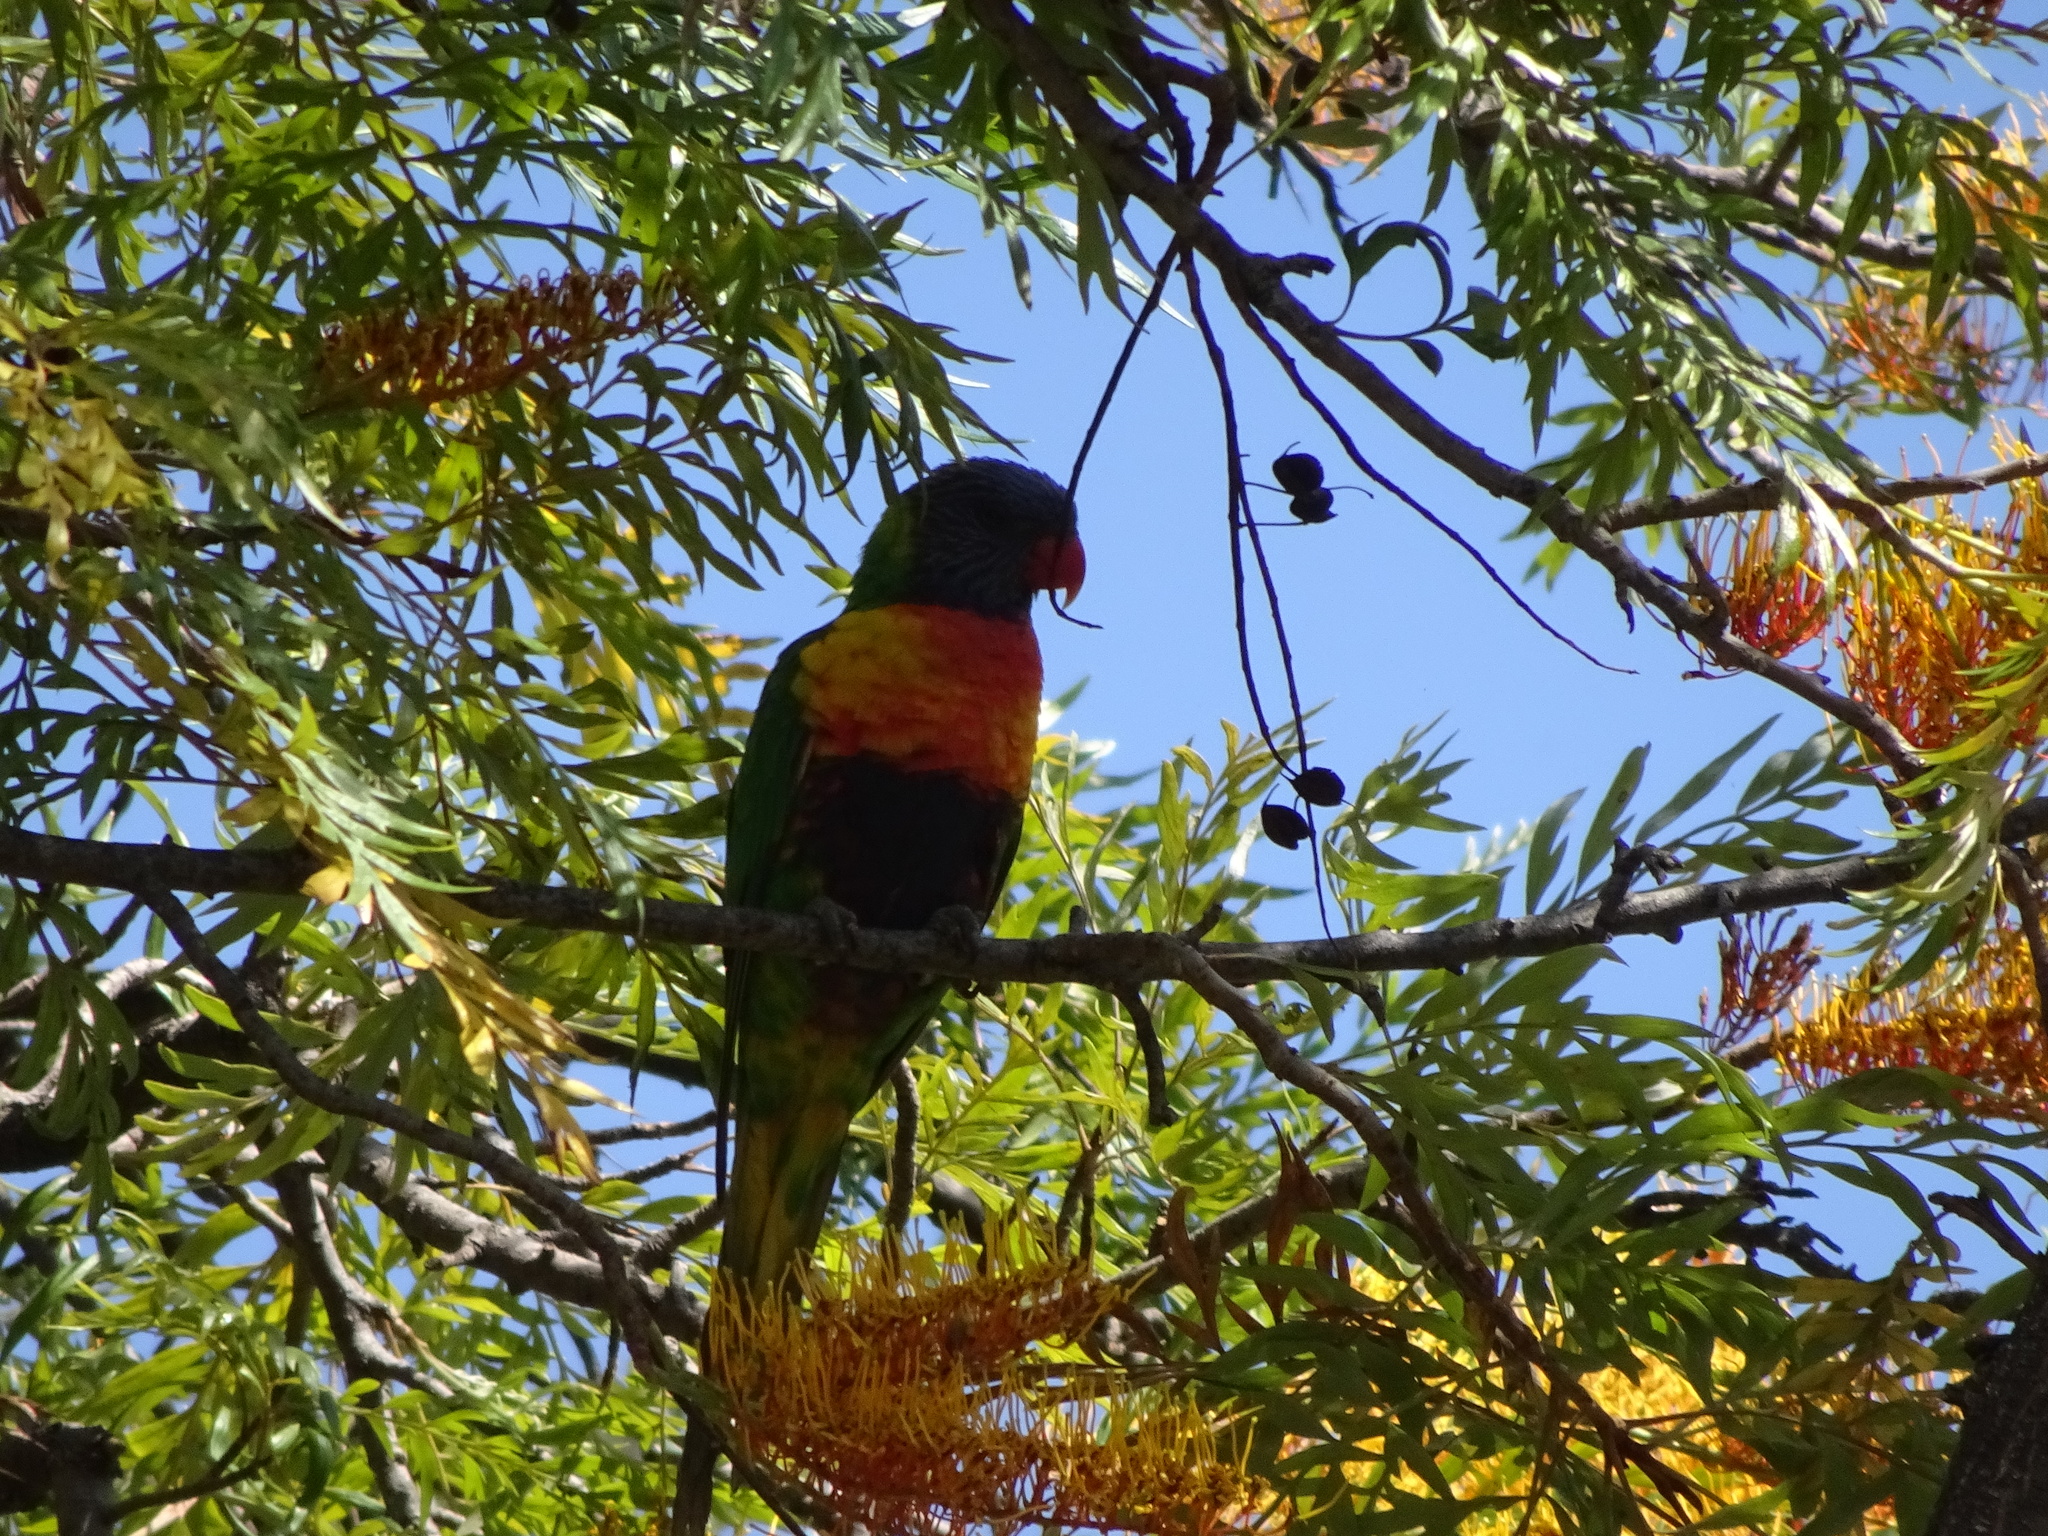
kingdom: Animalia
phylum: Chordata
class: Aves
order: Psittaciformes
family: Psittacidae
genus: Trichoglossus
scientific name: Trichoglossus haematodus
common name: Coconut lorikeet
